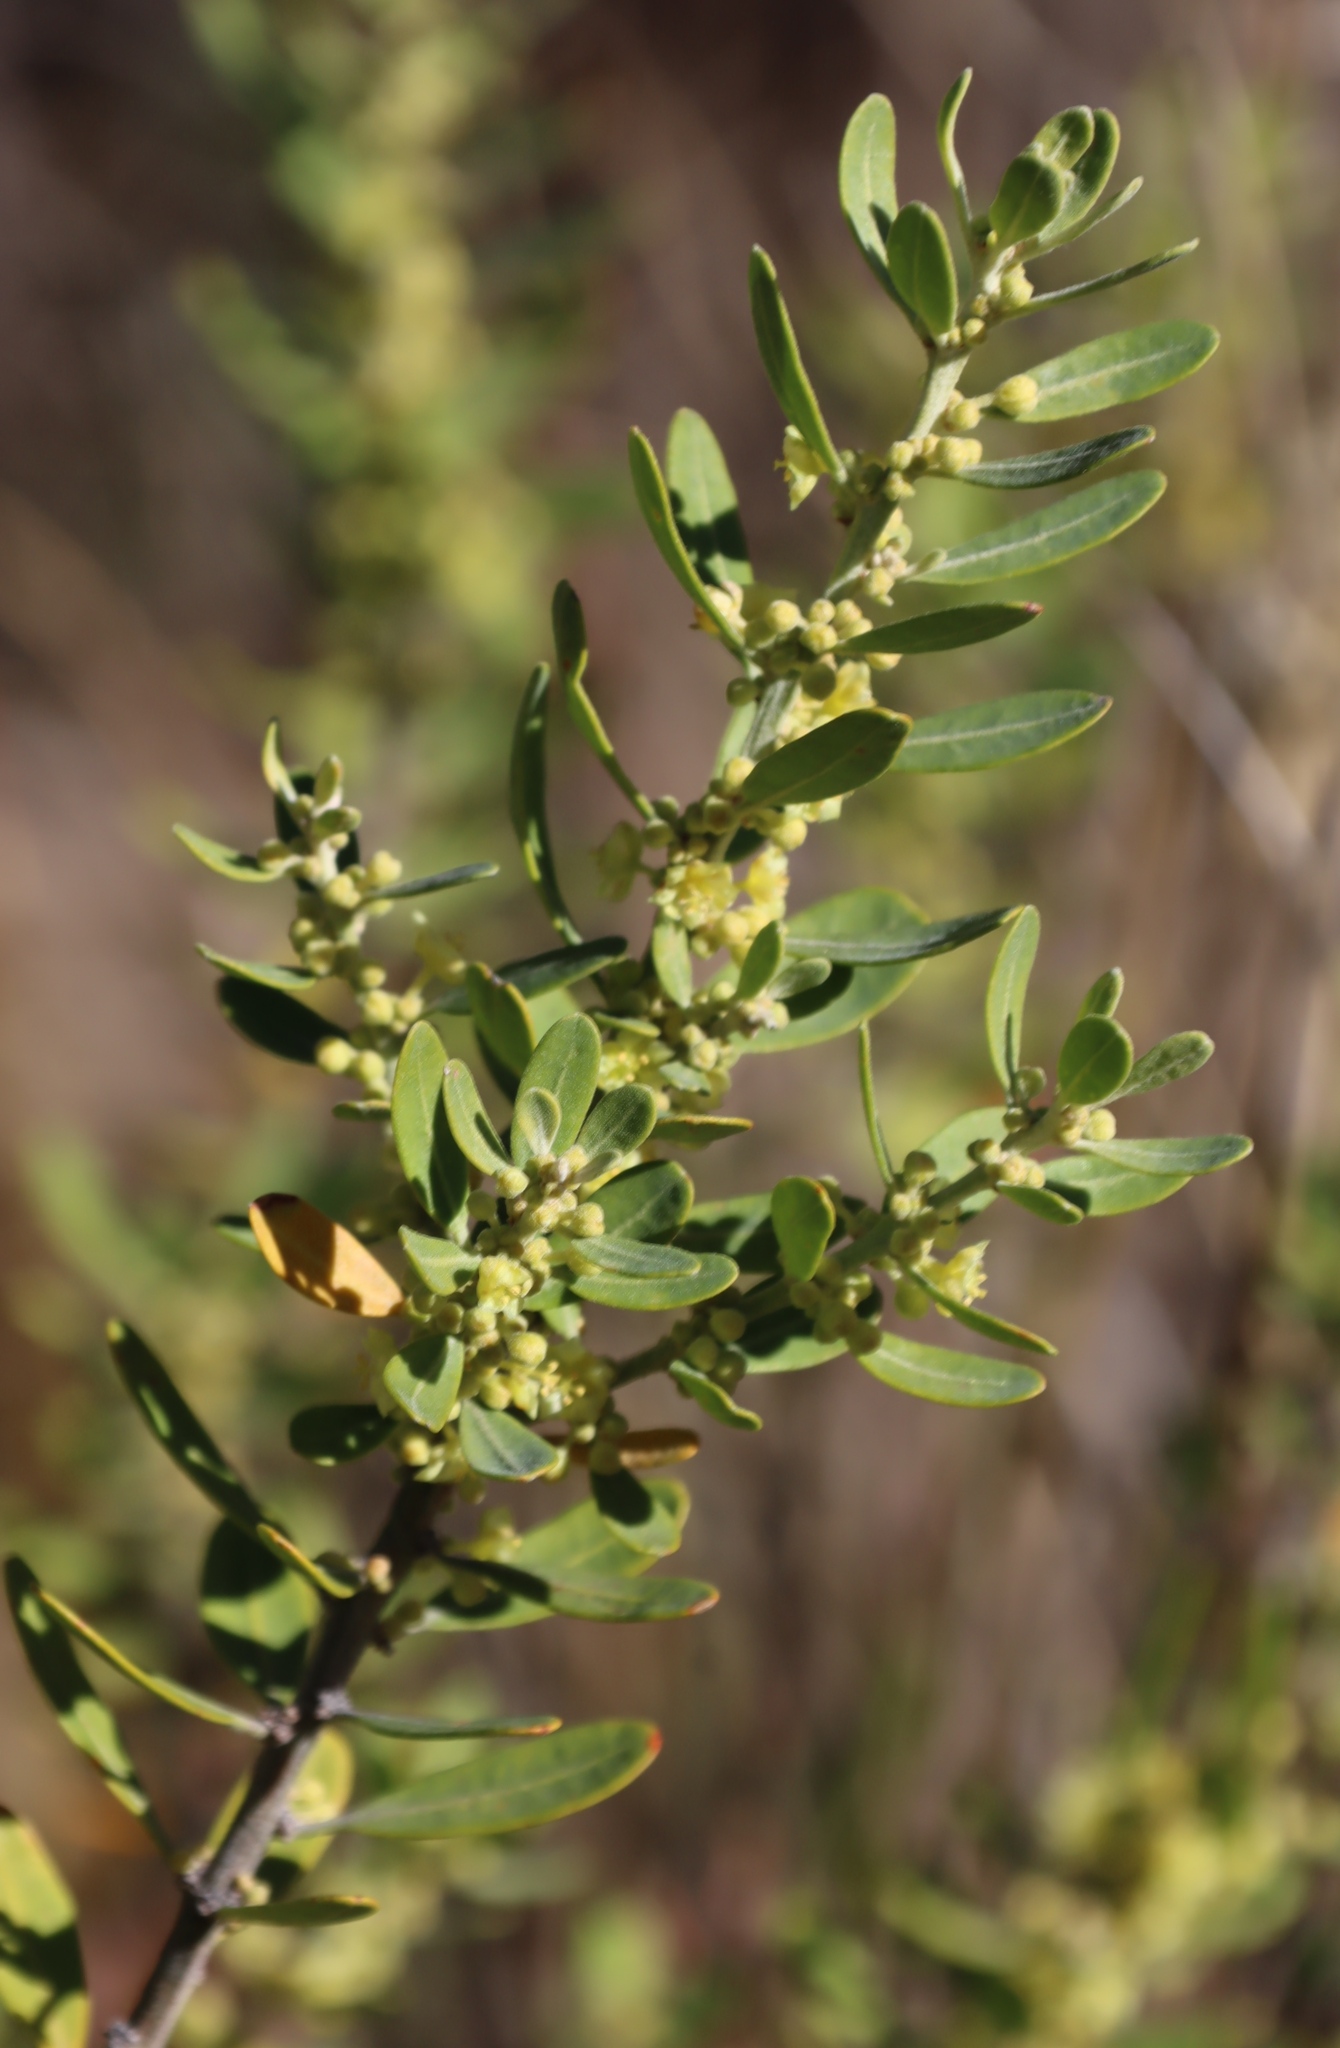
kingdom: Plantae
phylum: Tracheophyta
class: Magnoliopsida
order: Malpighiales
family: Peraceae
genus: Clutia
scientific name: Clutia daphnoides
